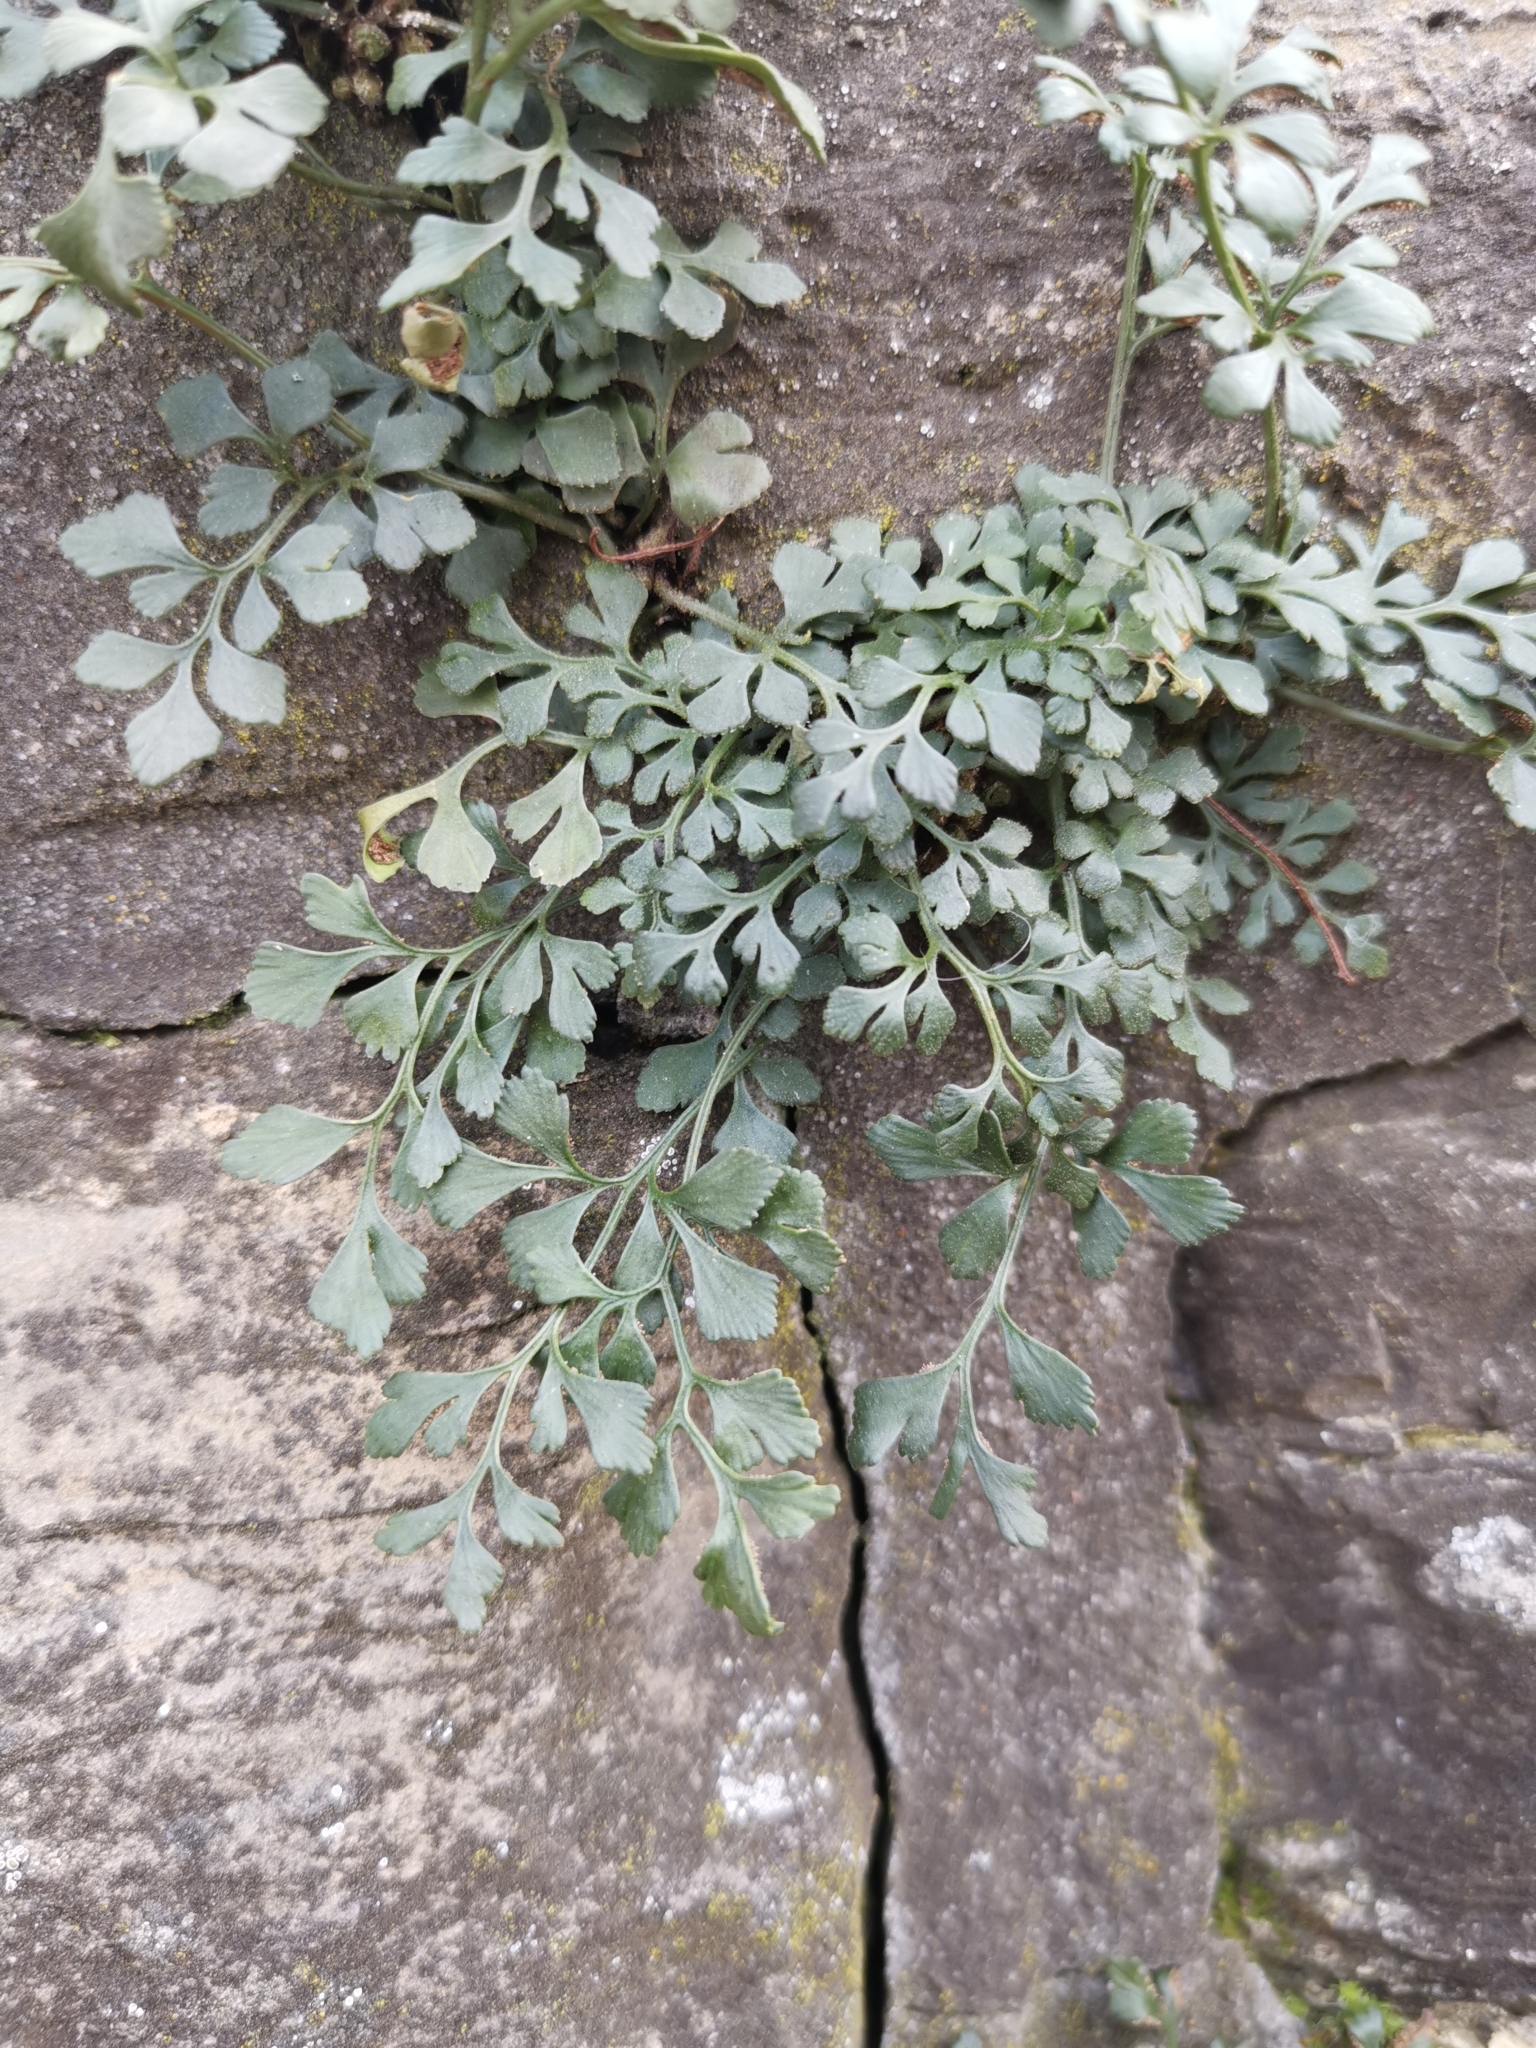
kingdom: Plantae
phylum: Tracheophyta
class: Polypodiopsida
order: Polypodiales
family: Aspleniaceae
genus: Asplenium
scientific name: Asplenium ruta-muraria
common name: Wall-rue
